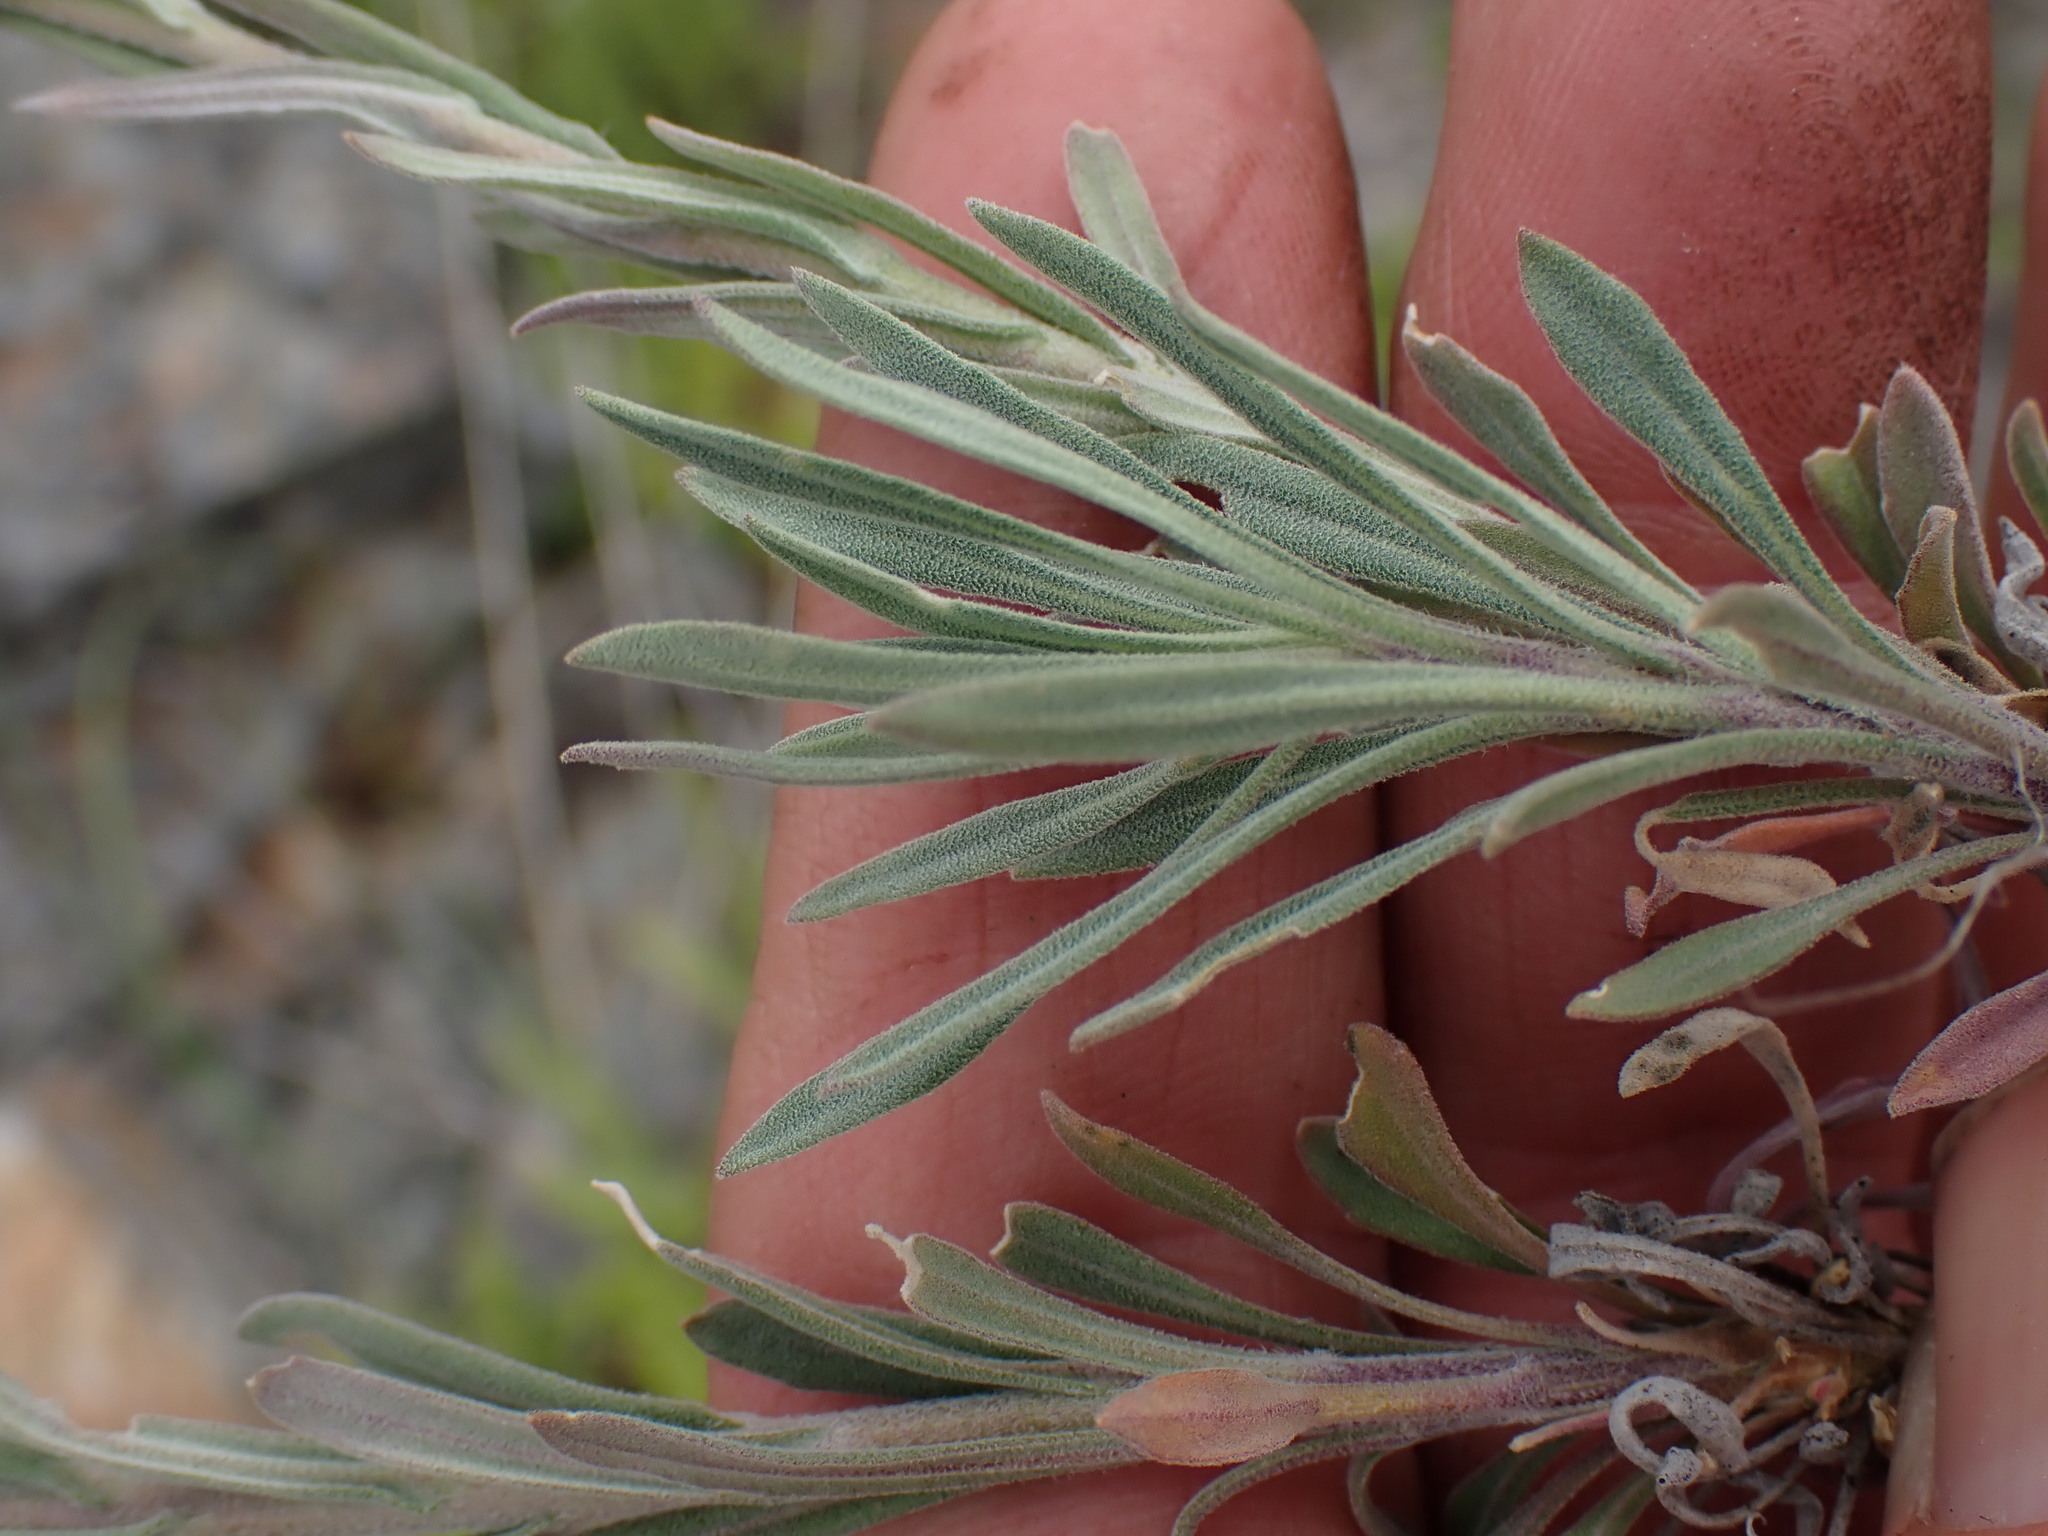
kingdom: Plantae
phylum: Tracheophyta
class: Magnoliopsida
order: Brassicales
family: Brassicaceae
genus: Boechera
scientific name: Boechera retrofracta
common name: Dangling suncress
